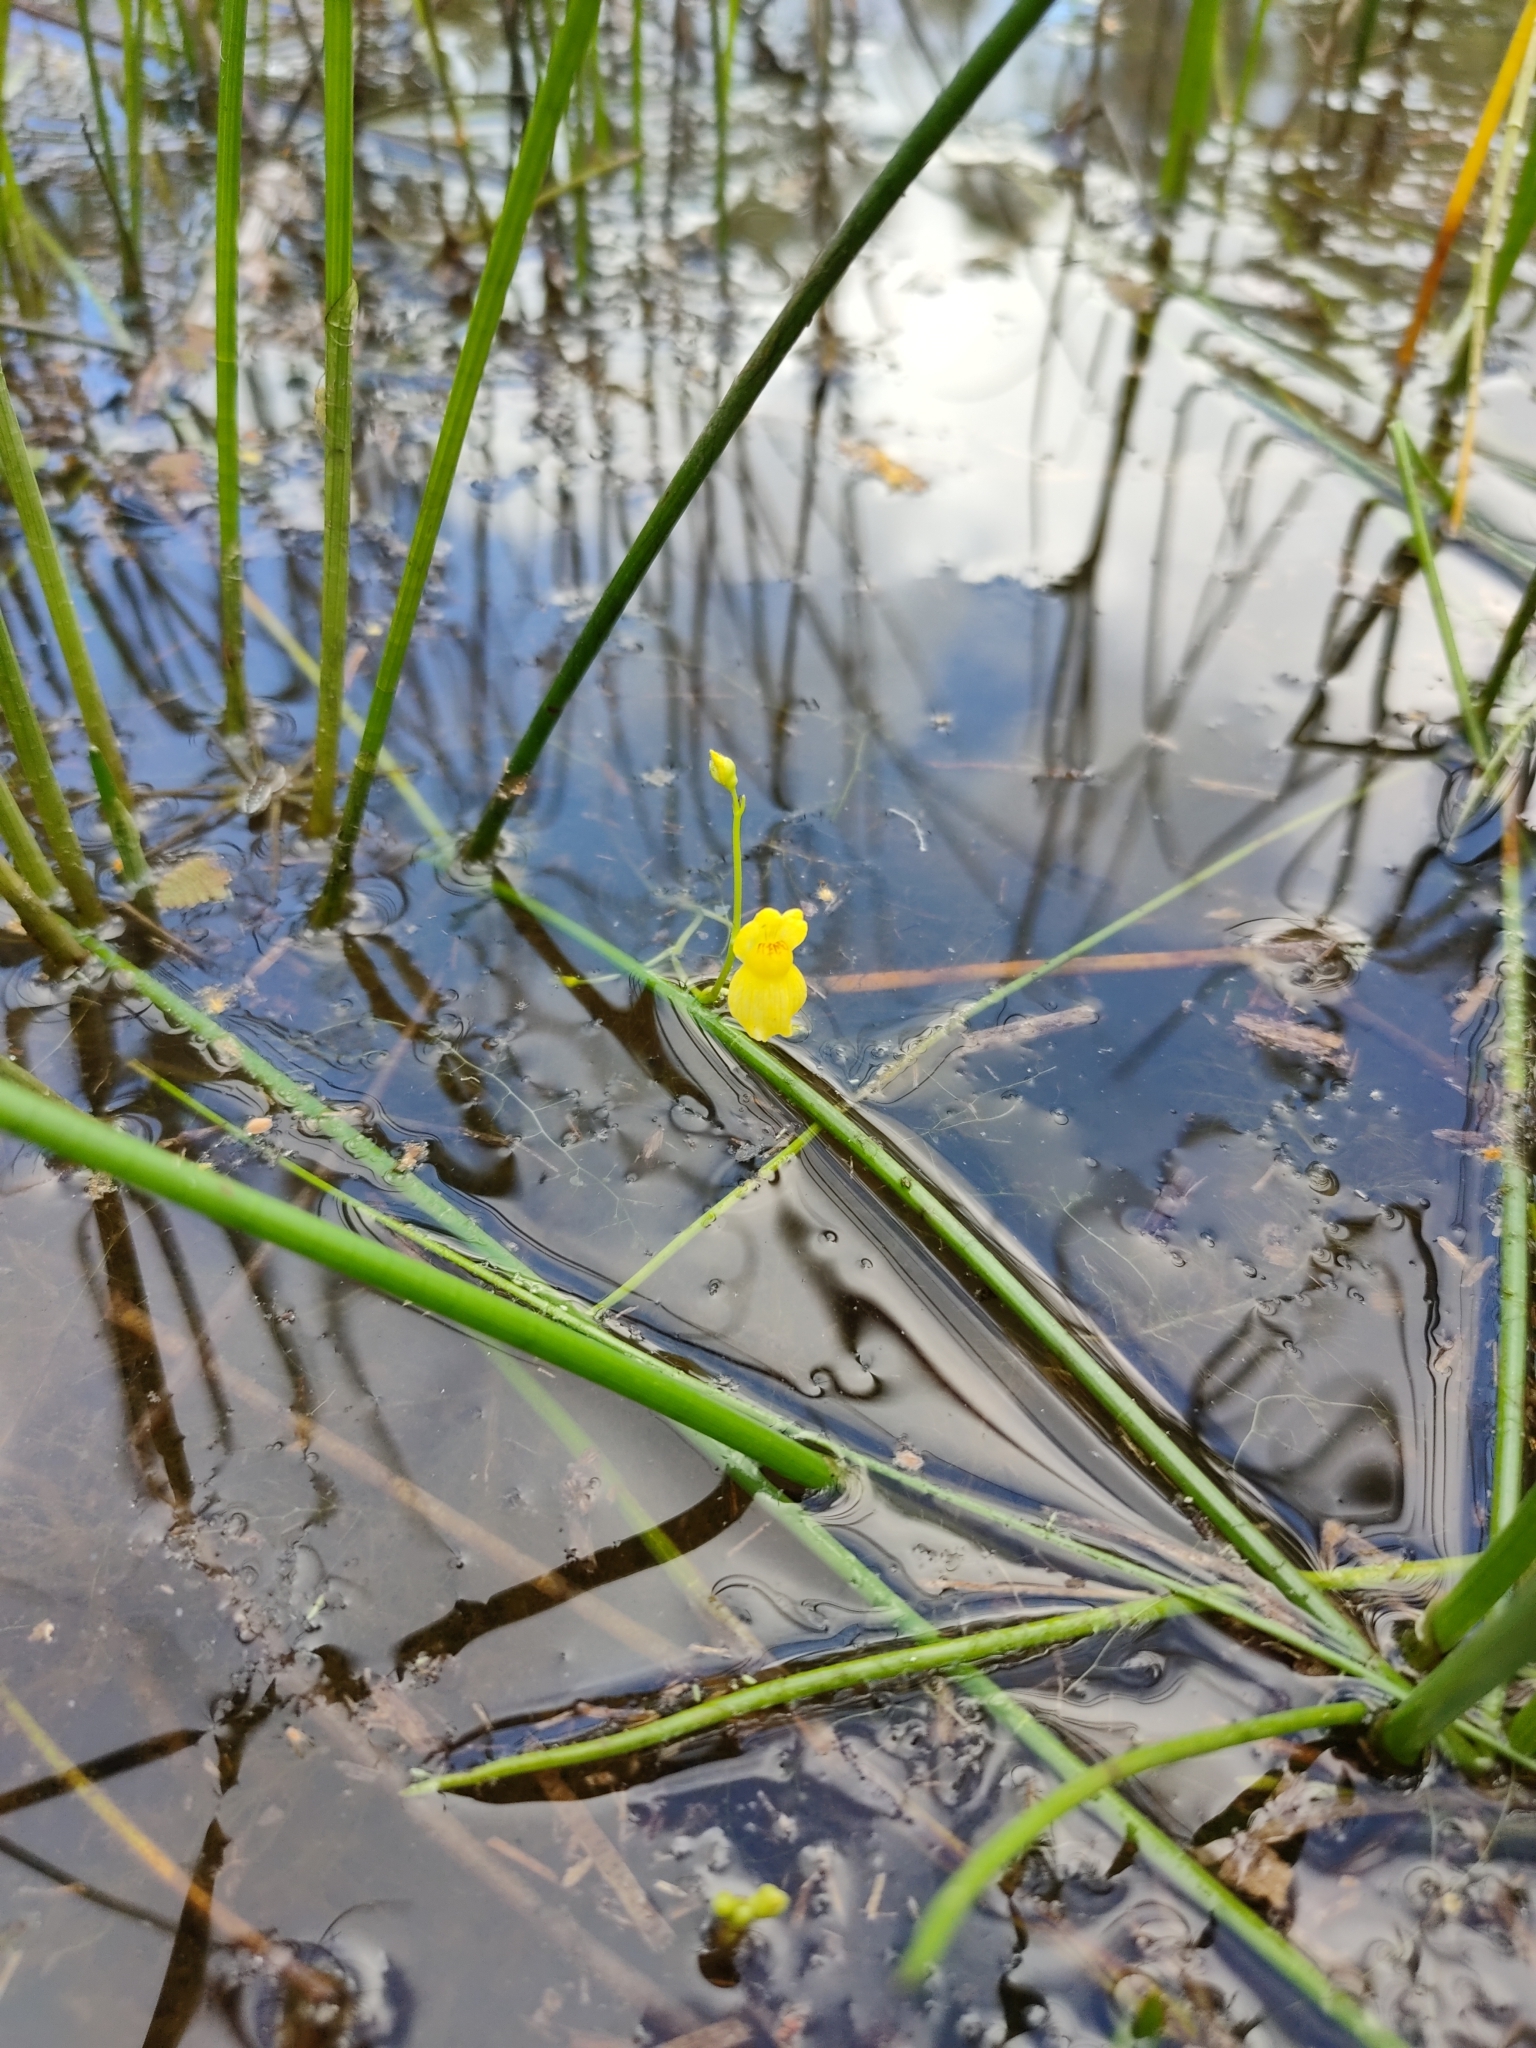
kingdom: Plantae
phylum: Tracheophyta
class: Magnoliopsida
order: Lamiales
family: Lentibulariaceae
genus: Utricularia
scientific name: Utricularia aurea
